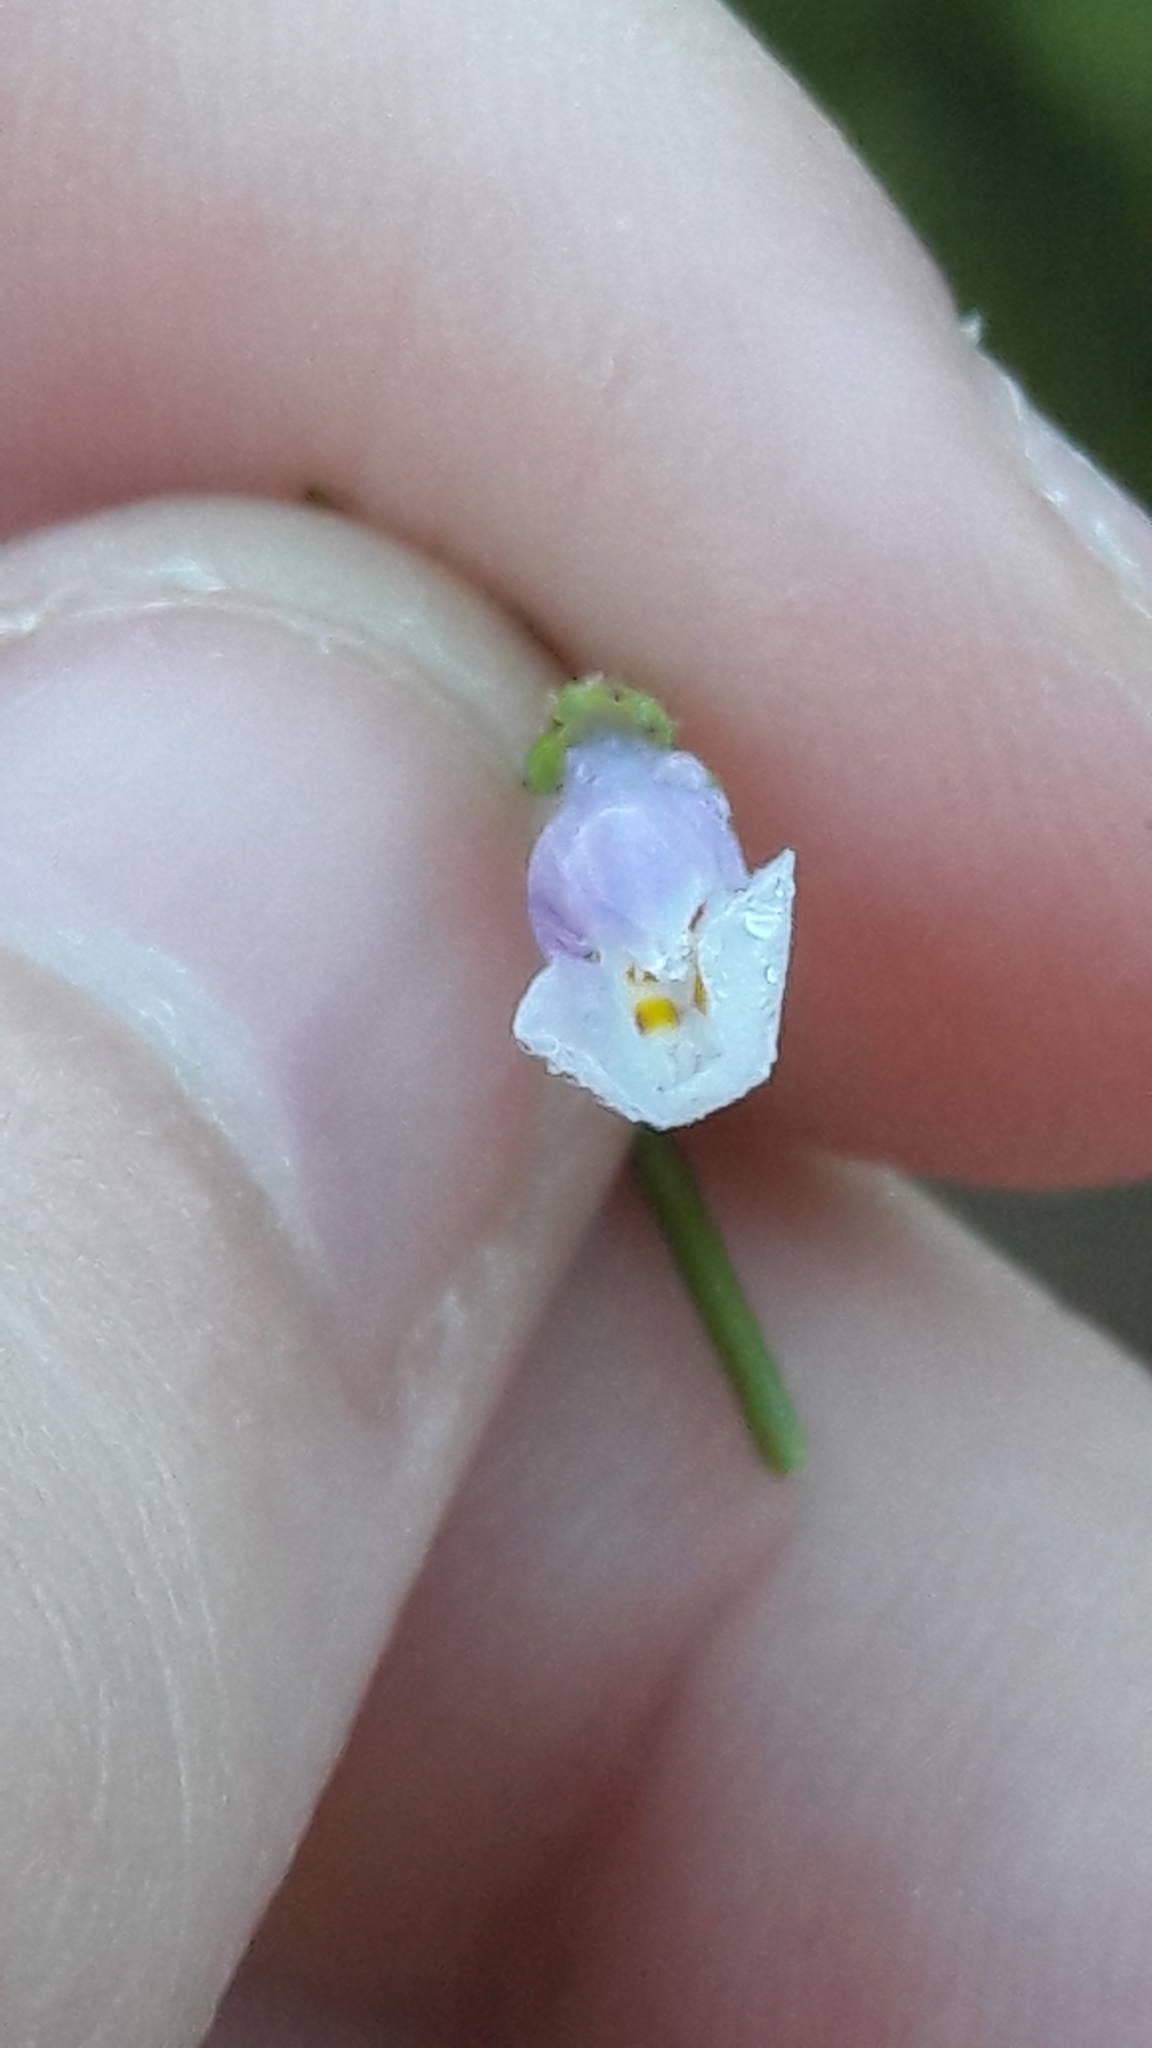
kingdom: Plantae
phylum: Tracheophyta
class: Magnoliopsida
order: Lamiales
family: Mazaceae
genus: Mazus
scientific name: Mazus pumilus
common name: Japanese mazus
